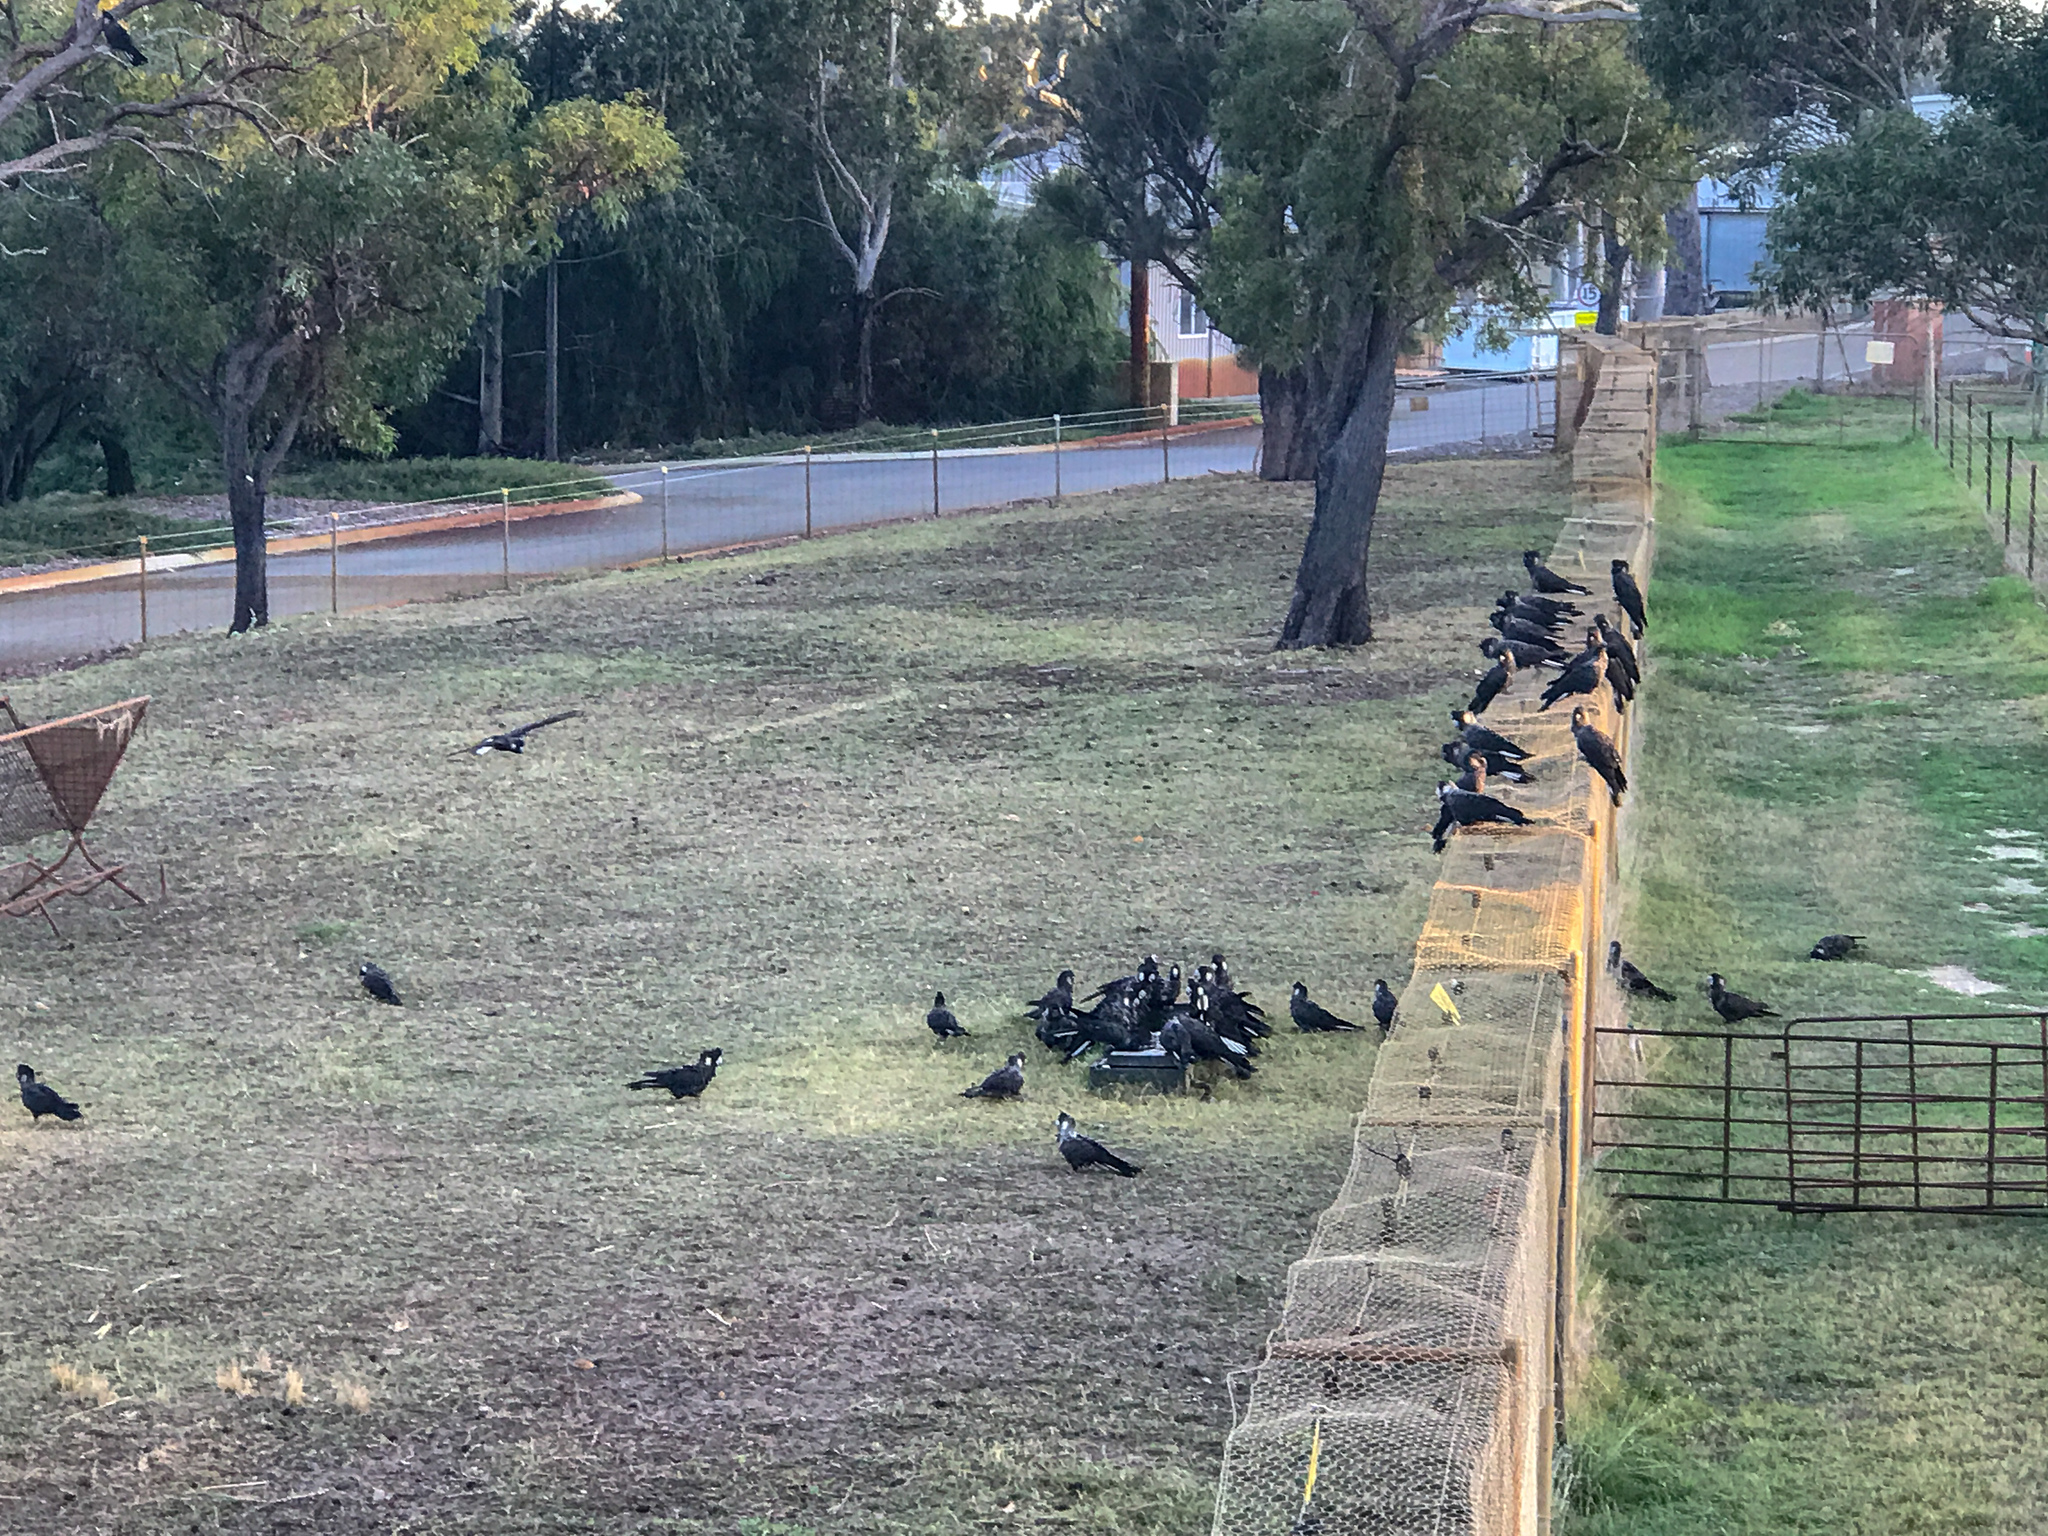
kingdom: Animalia
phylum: Chordata
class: Aves
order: Psittaciformes
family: Cacatuidae
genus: Zanda
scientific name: Zanda latirostris
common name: Short-billed black-cockatoo
